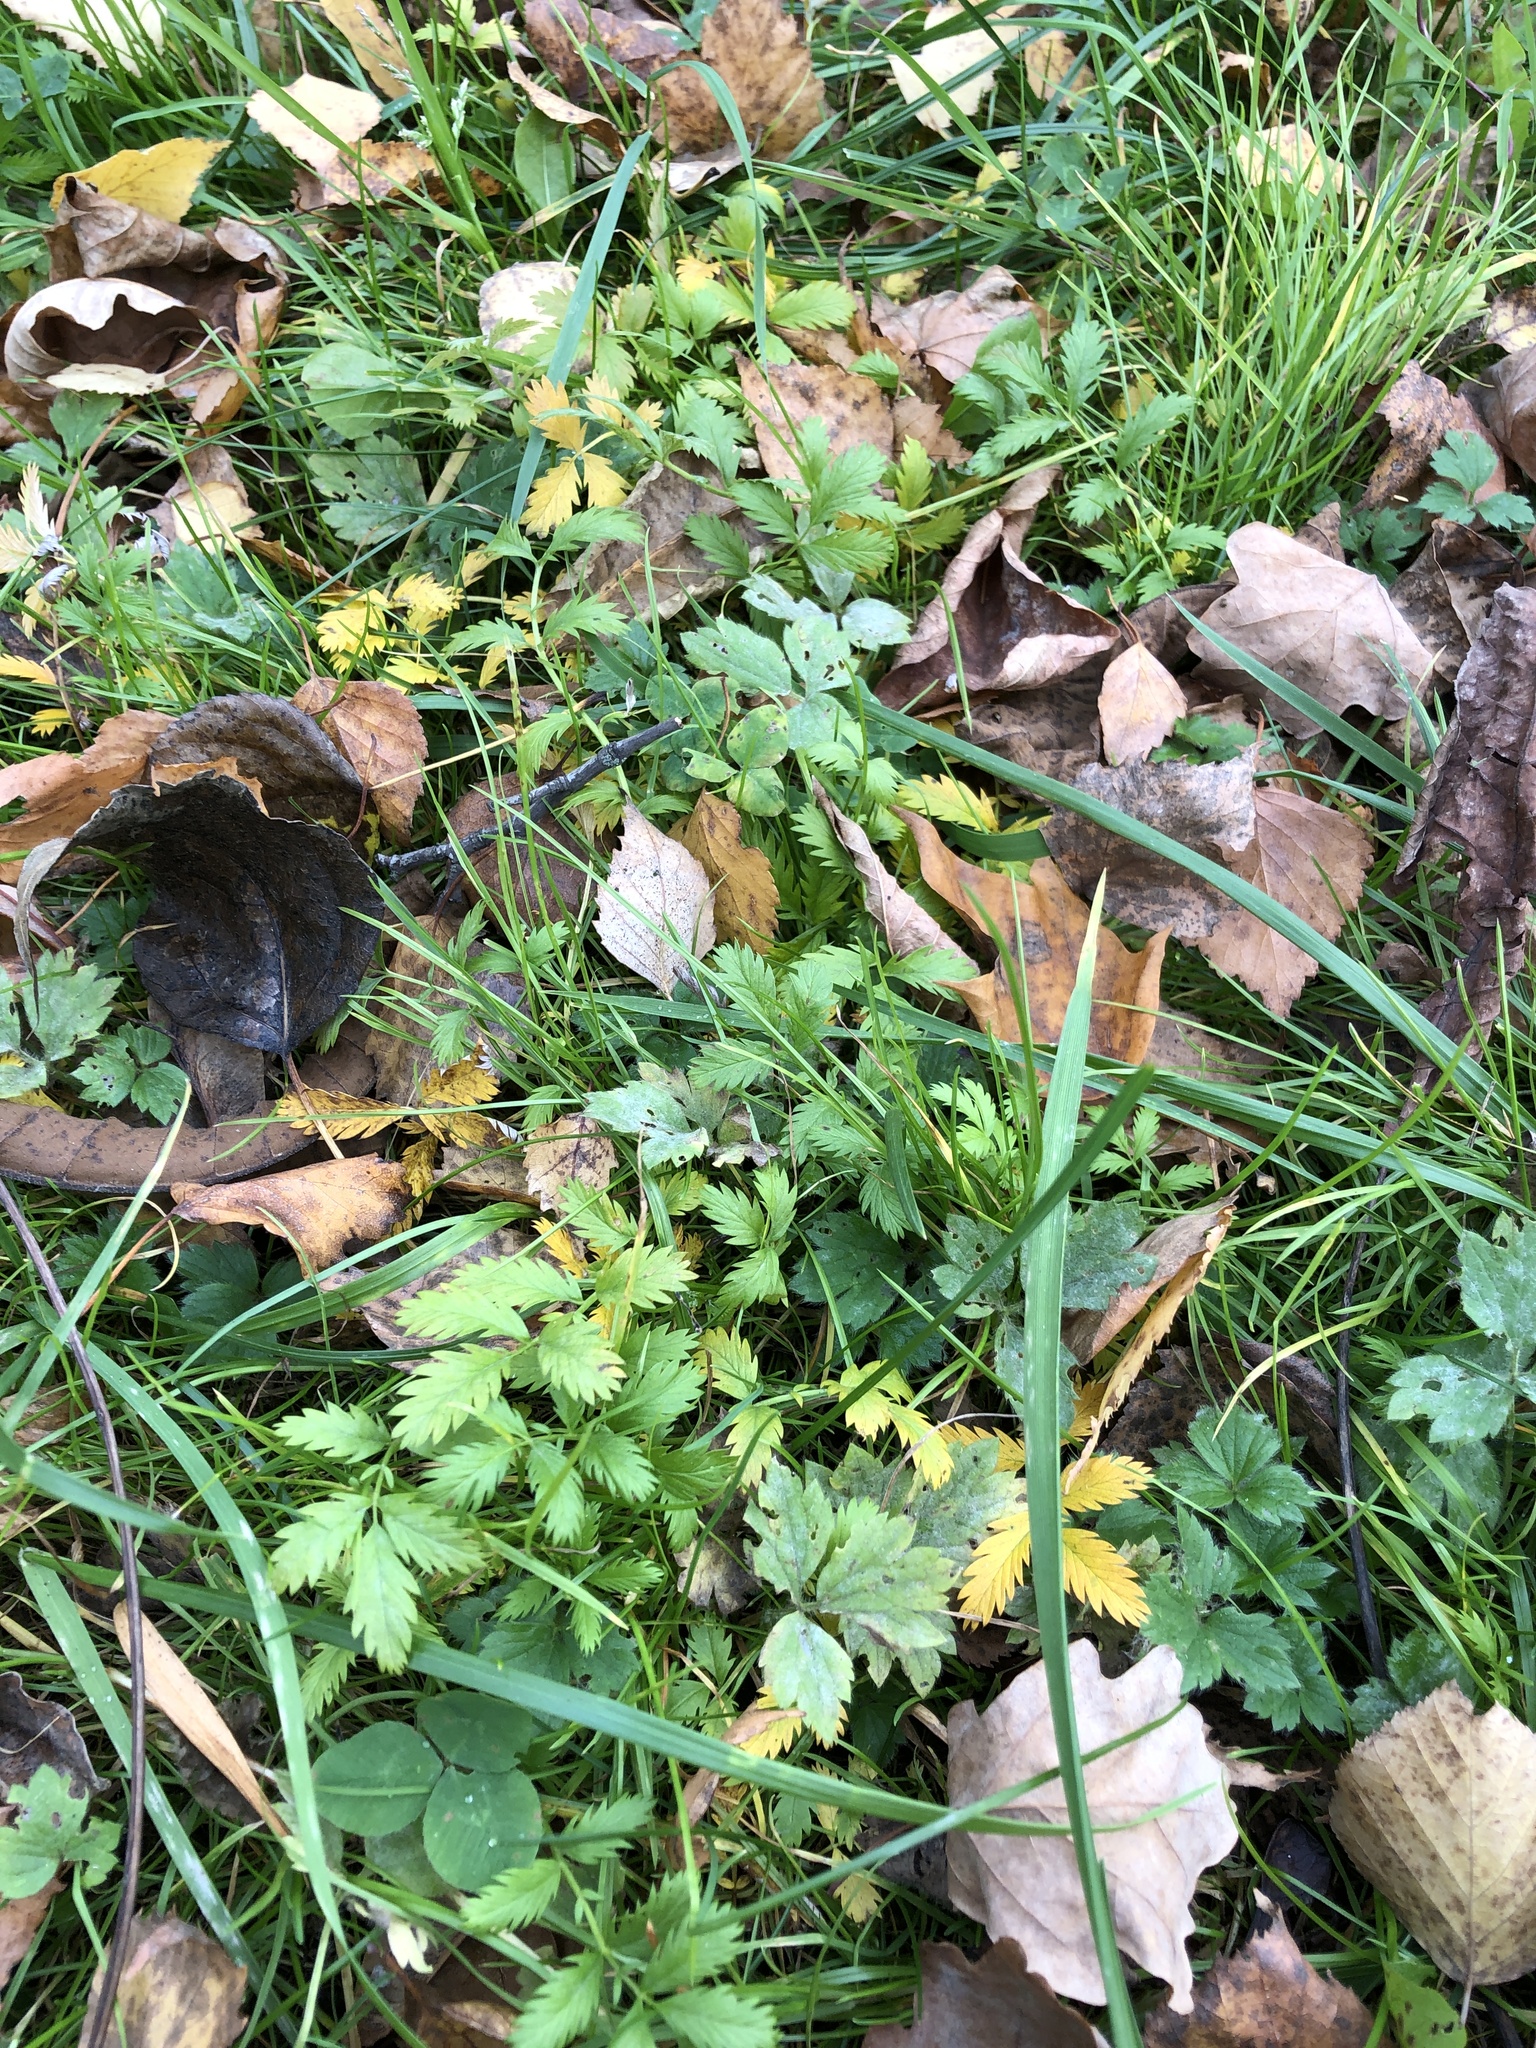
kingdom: Plantae
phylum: Tracheophyta
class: Magnoliopsida
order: Rosales
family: Rosaceae
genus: Argentina
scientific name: Argentina anserina
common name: Common silverweed
